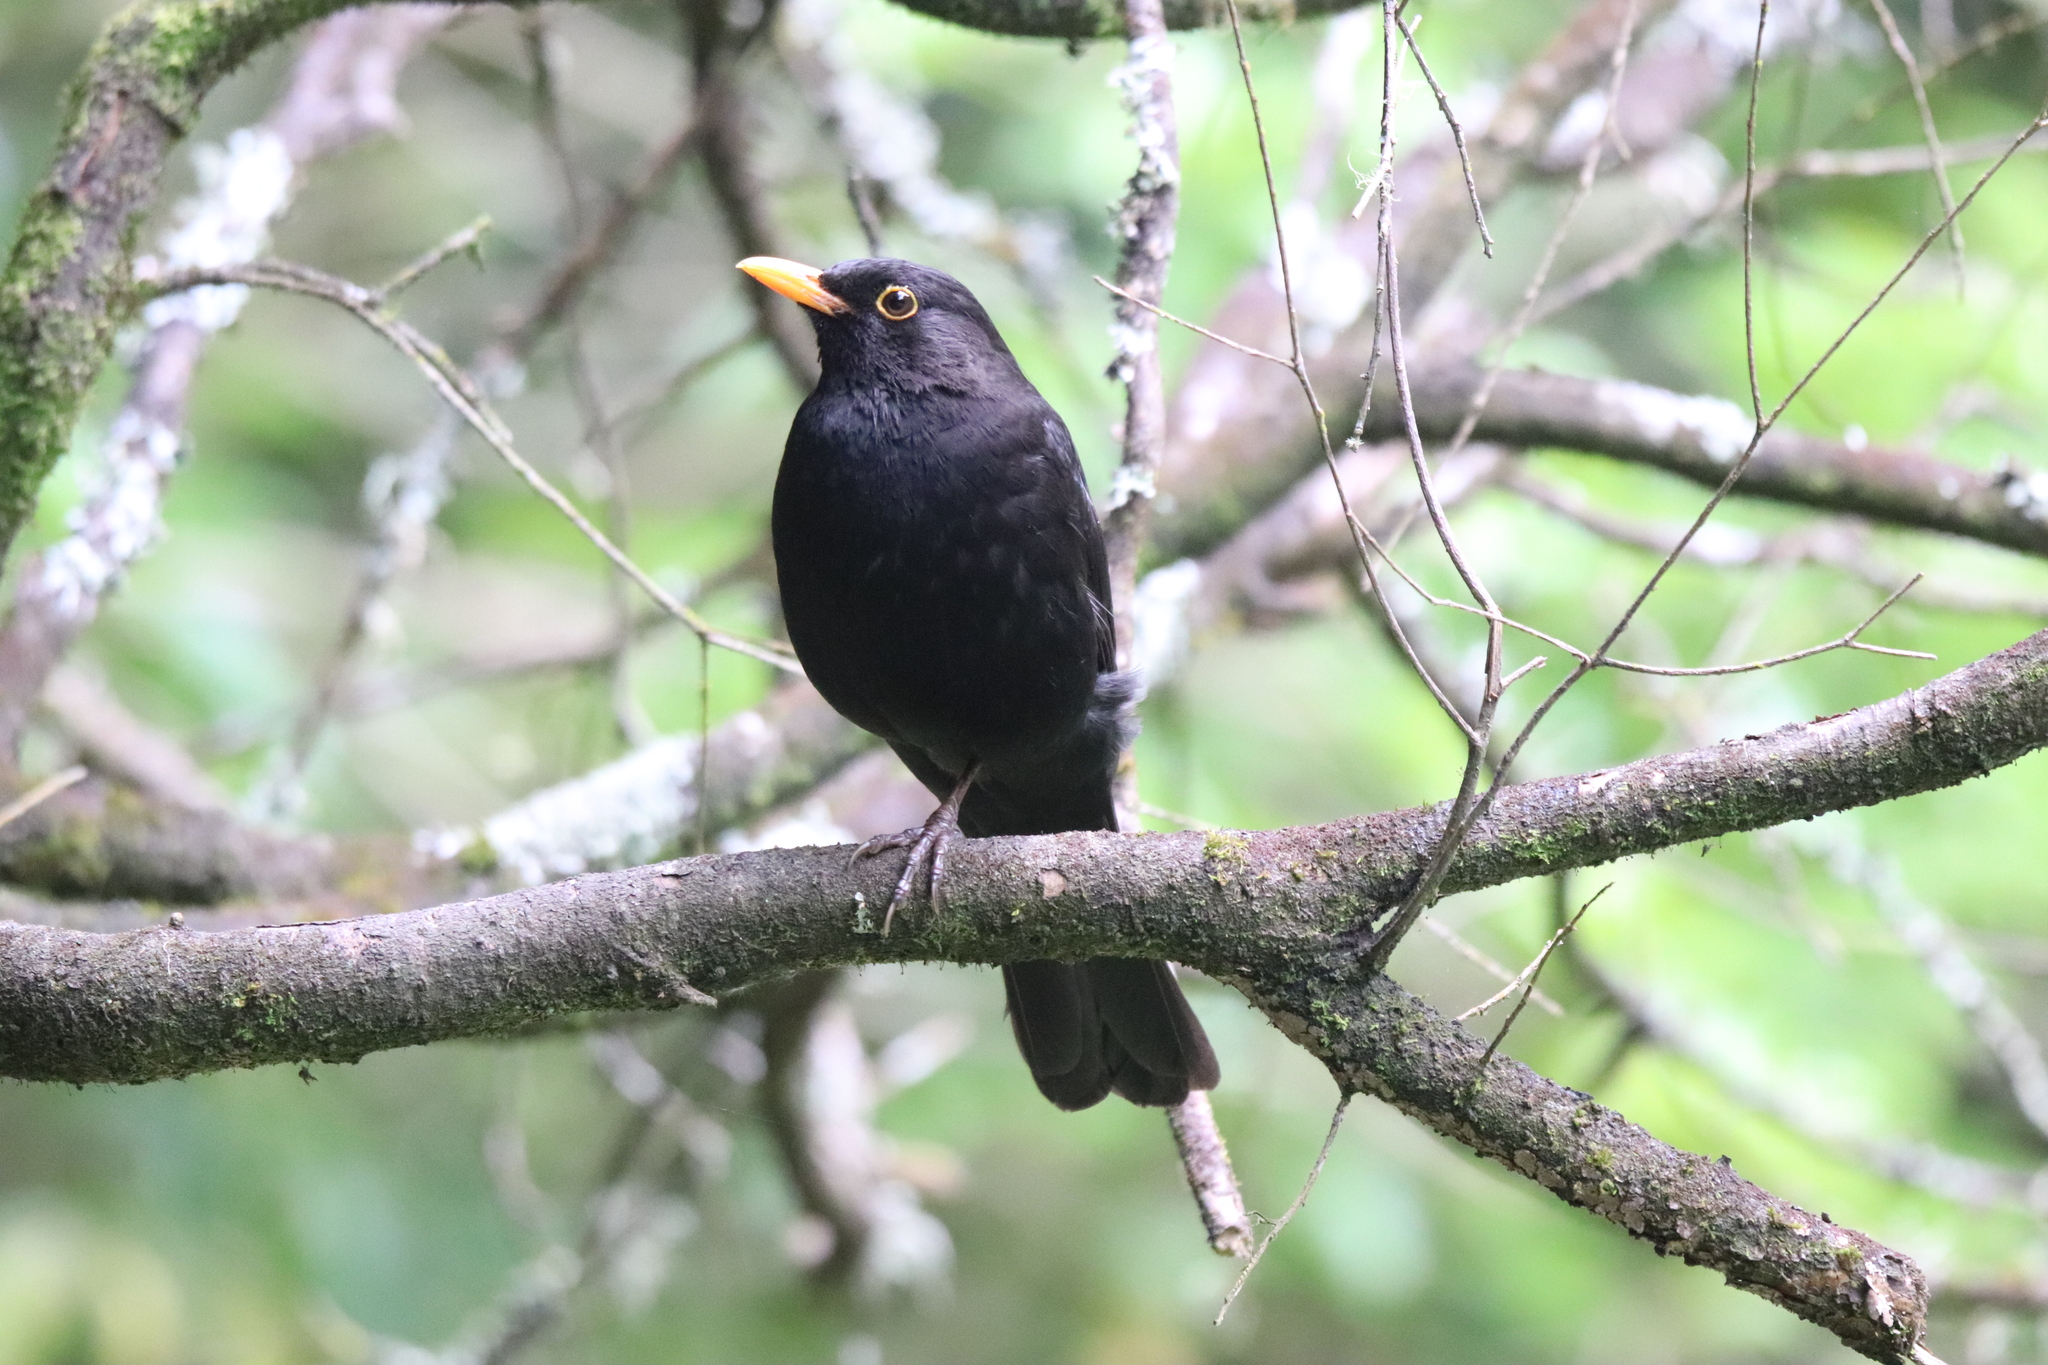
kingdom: Animalia
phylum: Chordata
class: Aves
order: Passeriformes
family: Turdidae
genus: Turdus
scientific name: Turdus merula
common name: Common blackbird
